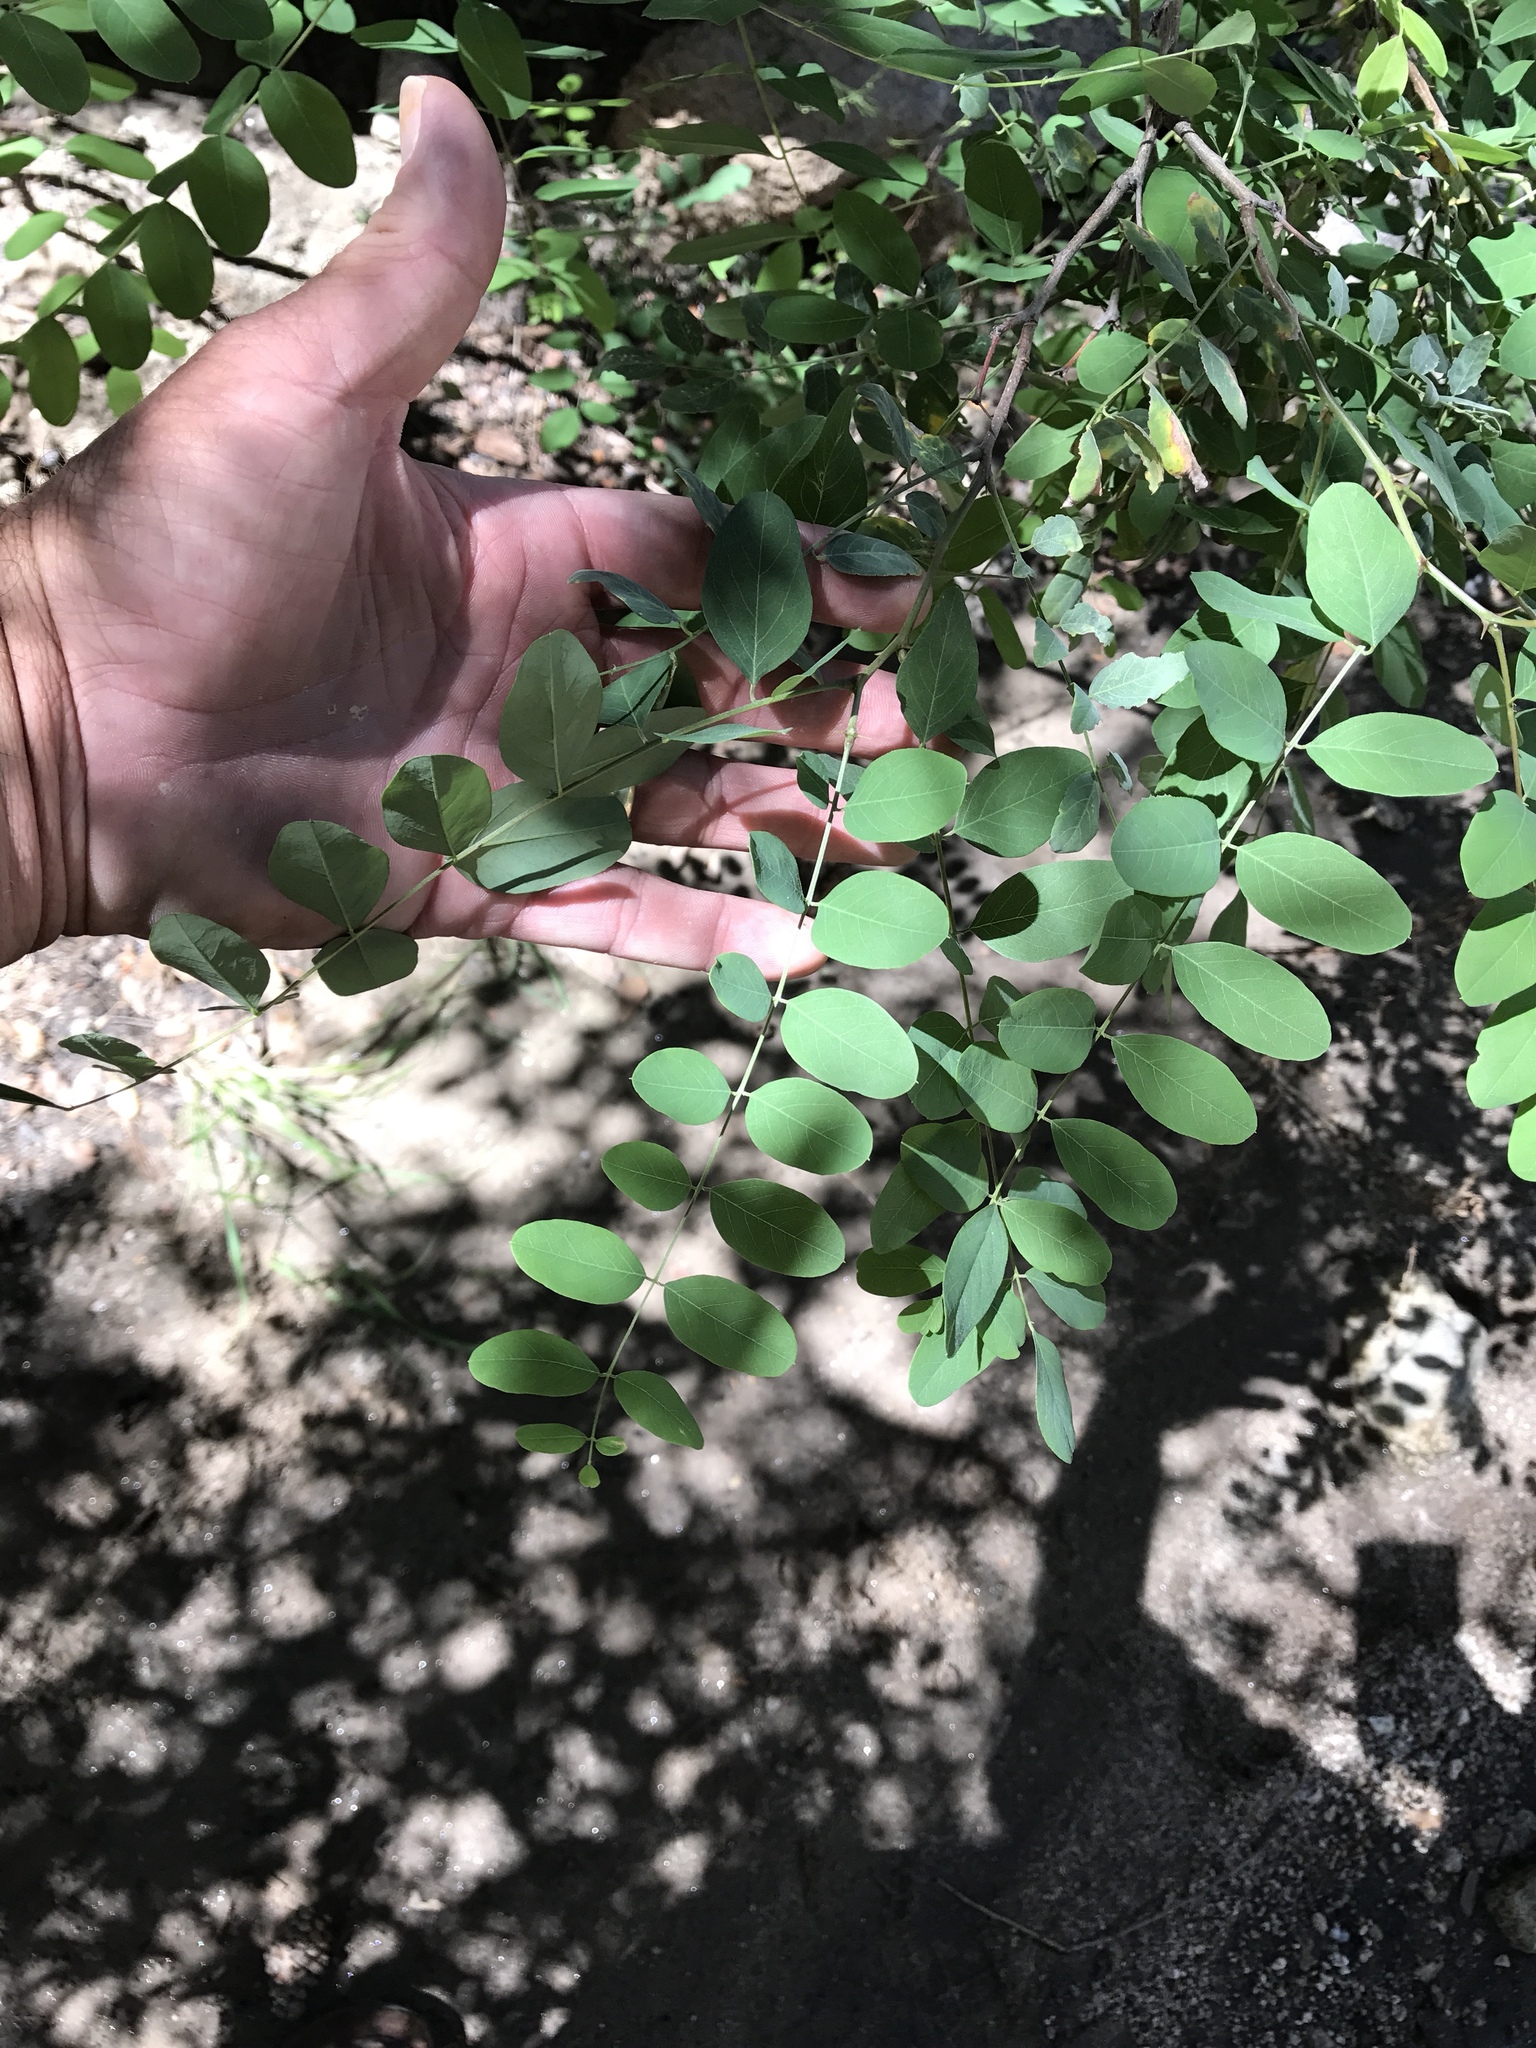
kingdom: Plantae
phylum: Tracheophyta
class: Magnoliopsida
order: Fabales
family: Fabaceae
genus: Robinia
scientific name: Robinia neomexicana
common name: New mexico locust
